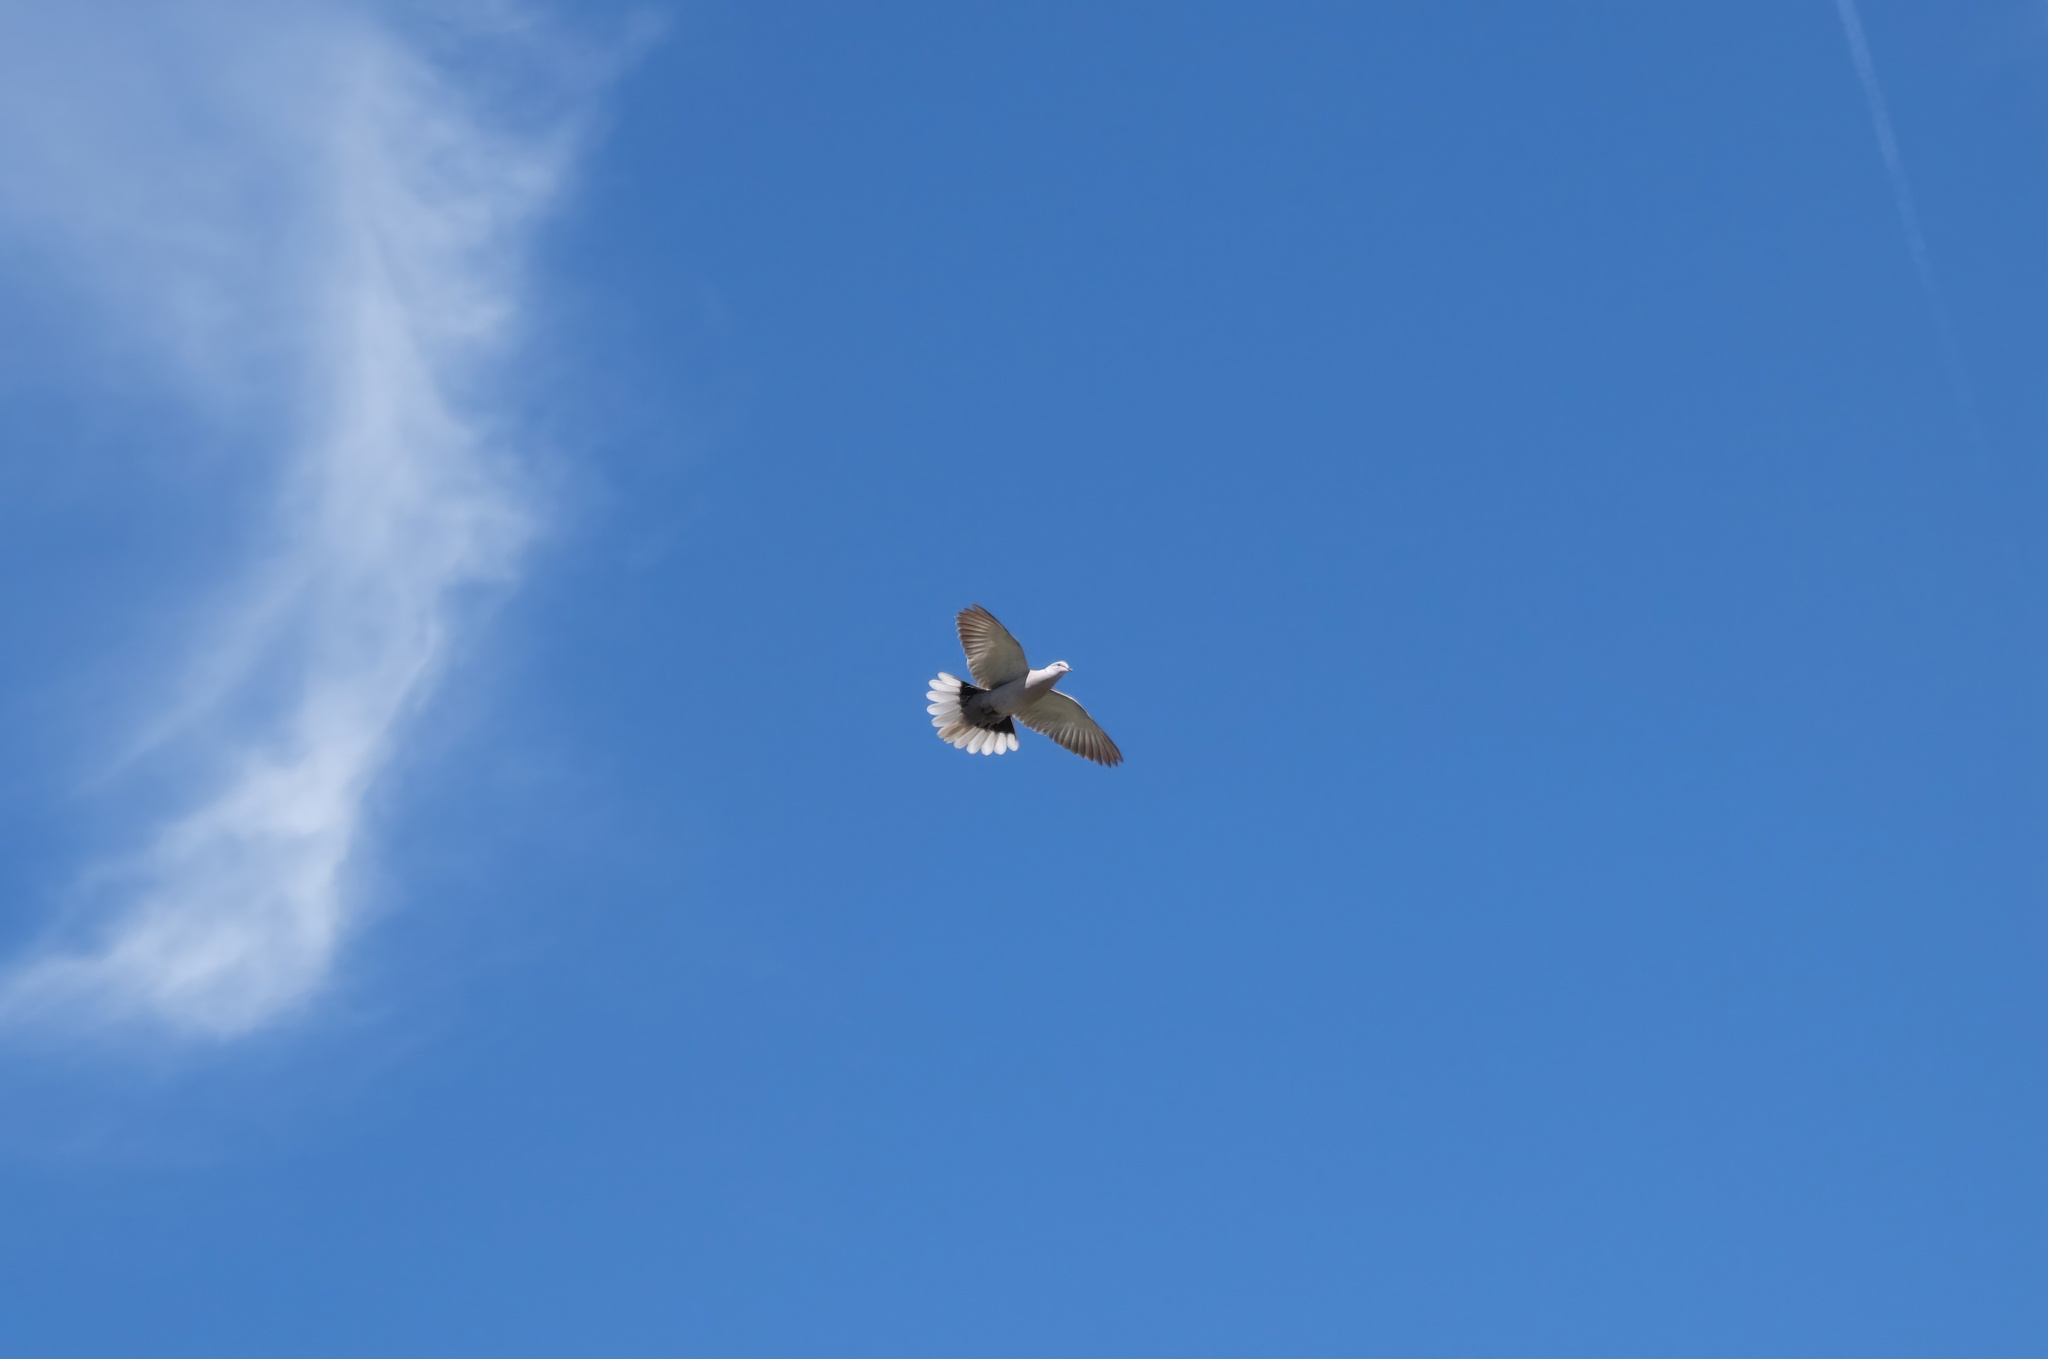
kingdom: Animalia
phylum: Chordata
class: Aves
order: Columbiformes
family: Columbidae
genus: Streptopelia
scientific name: Streptopelia decaocto
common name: Eurasian collared dove
